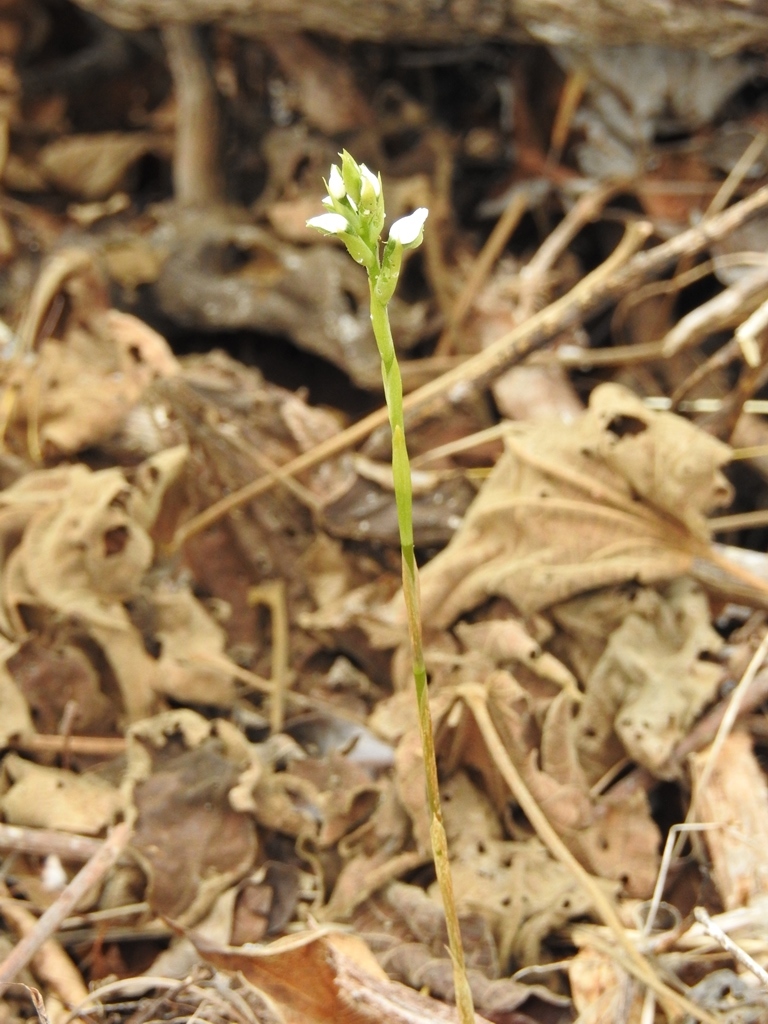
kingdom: Plantae
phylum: Tracheophyta
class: Liliopsida
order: Asparagales
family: Orchidaceae
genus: Aulosepalum
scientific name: Aulosepalum hemichrea
